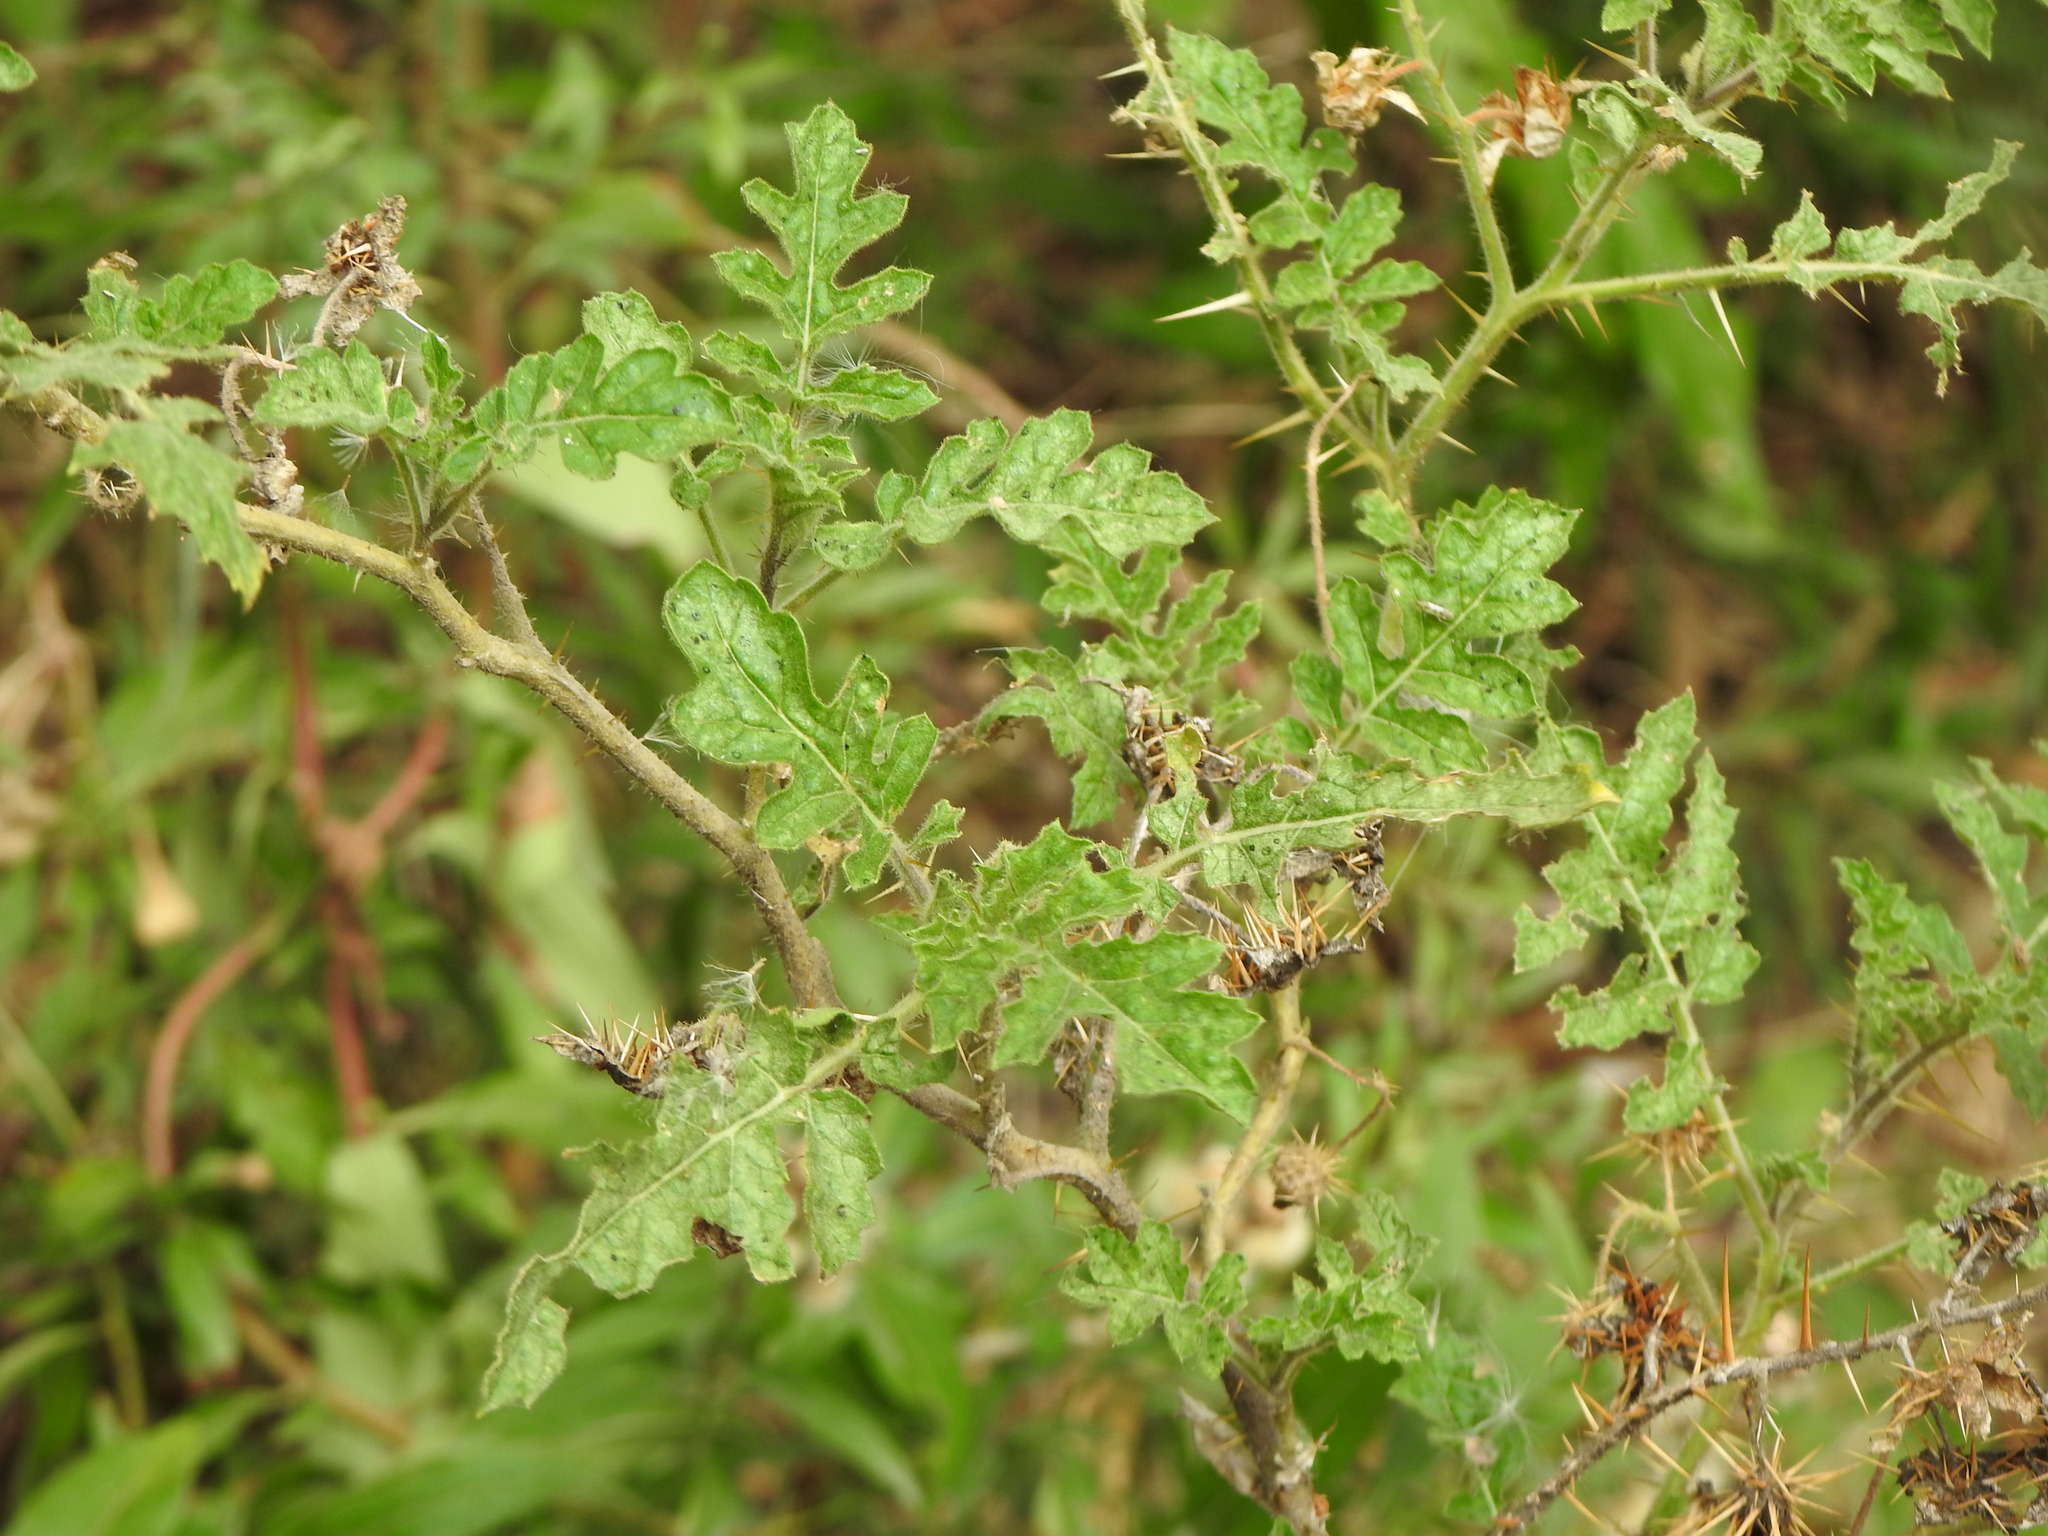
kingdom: Plantae
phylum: Tracheophyta
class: Magnoliopsida
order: Solanales
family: Solanaceae
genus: Solanum
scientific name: Solanum sisymbriifolium
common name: Red buffalo-bur
